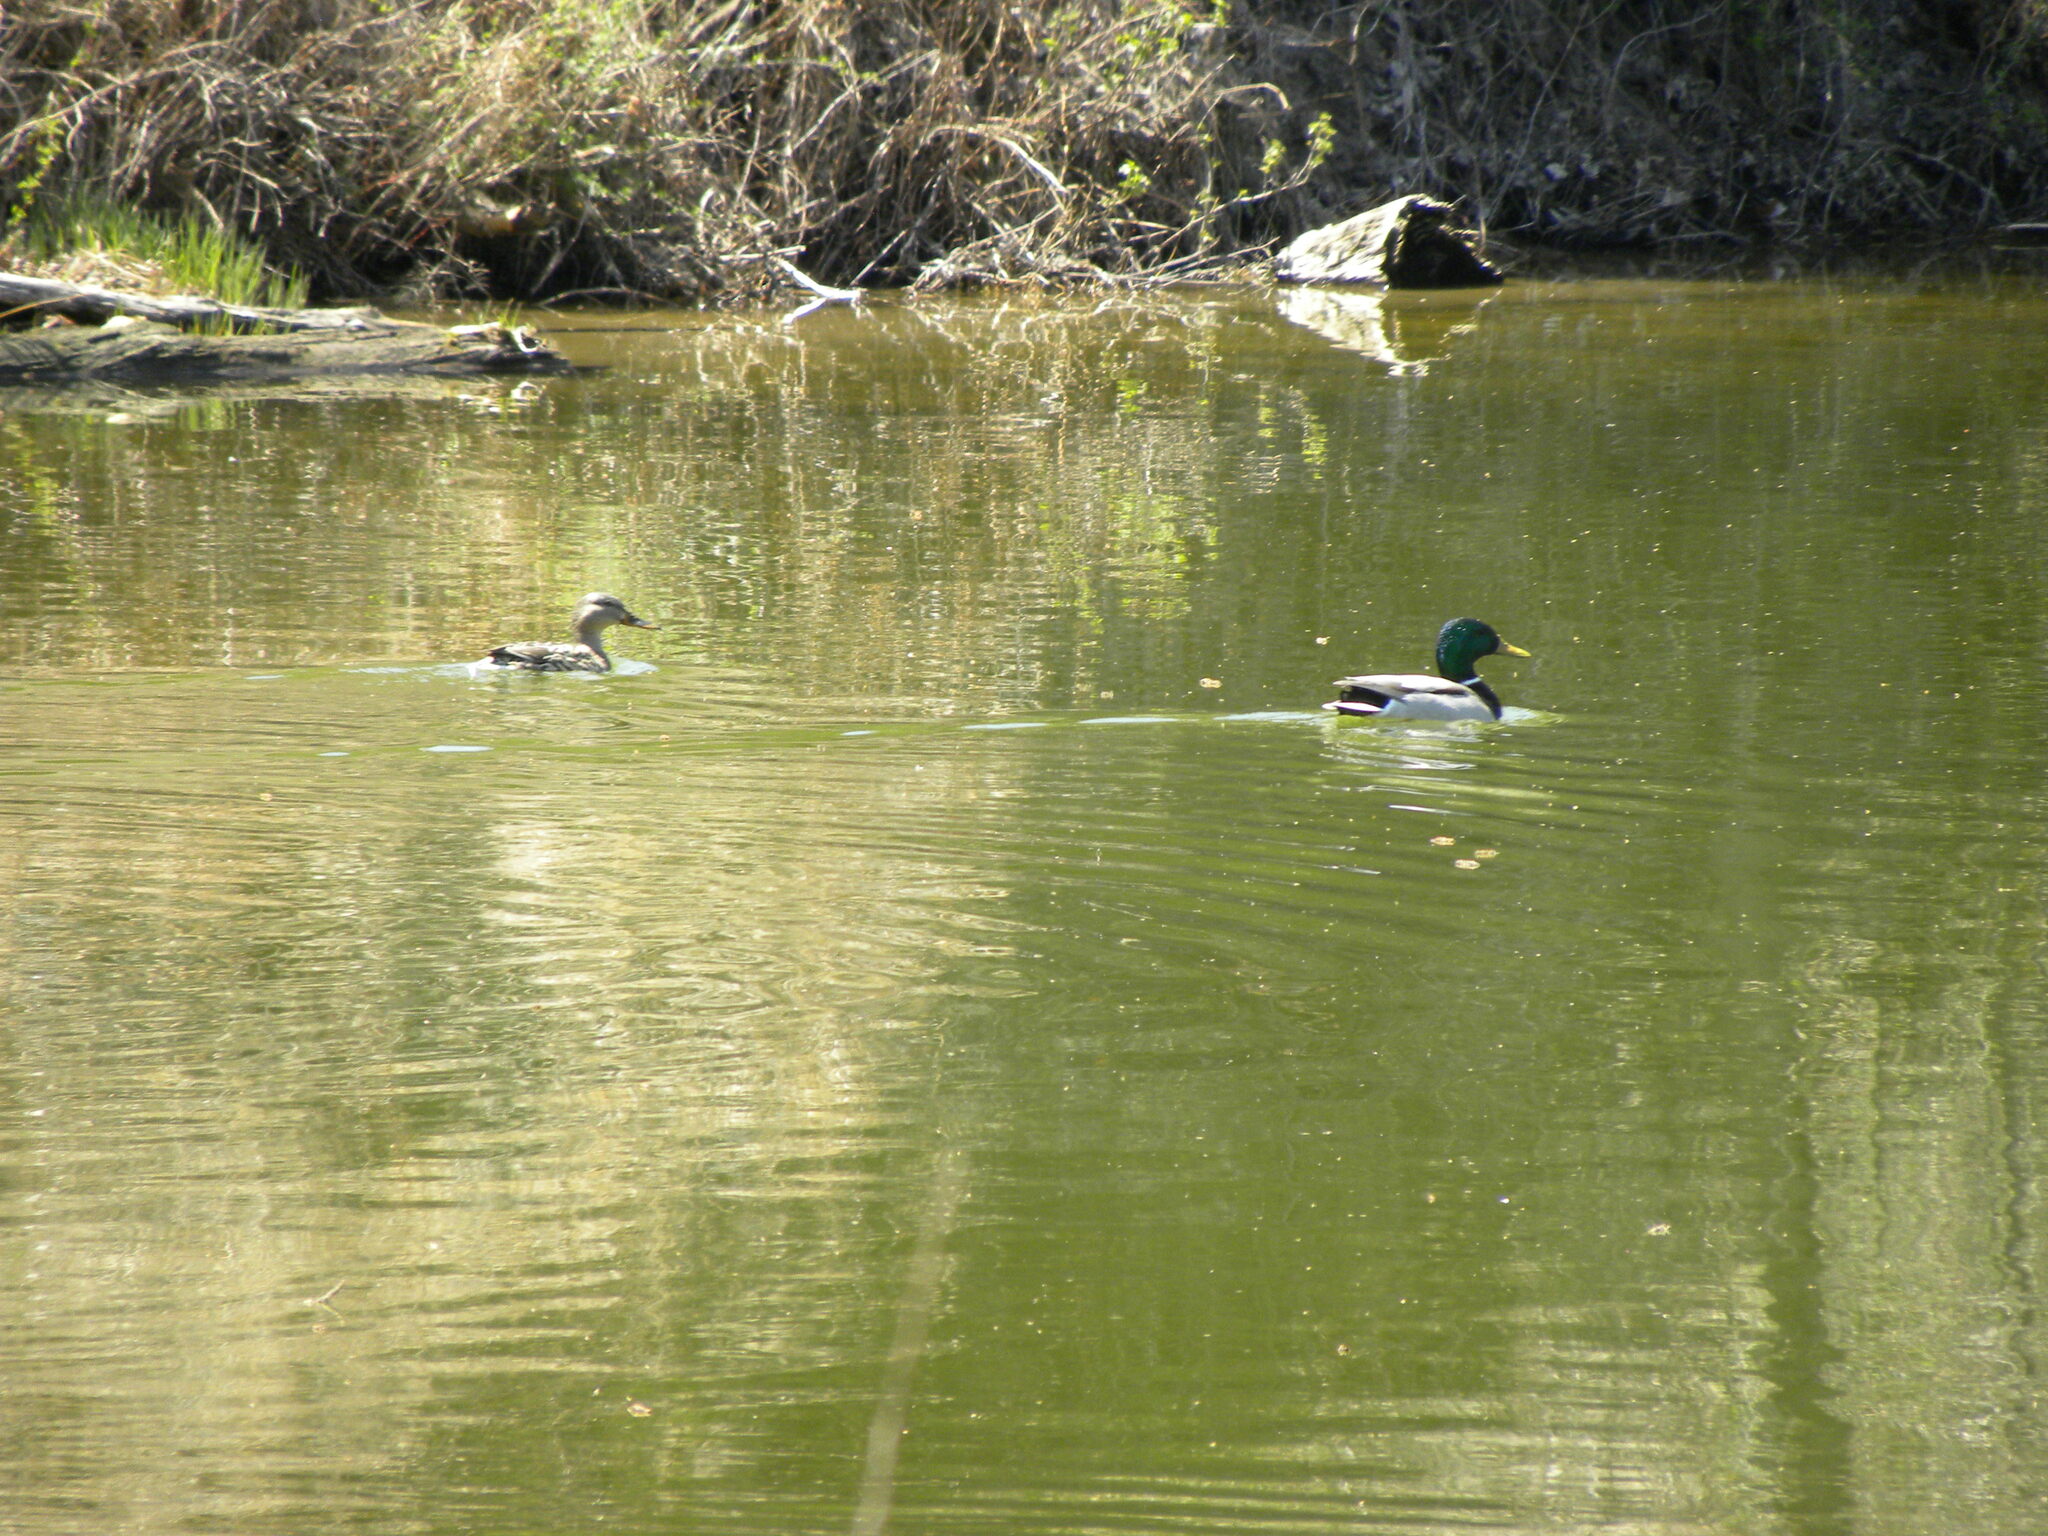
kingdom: Animalia
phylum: Chordata
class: Aves
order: Anseriformes
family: Anatidae
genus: Anas
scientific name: Anas platyrhynchos
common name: Mallard
